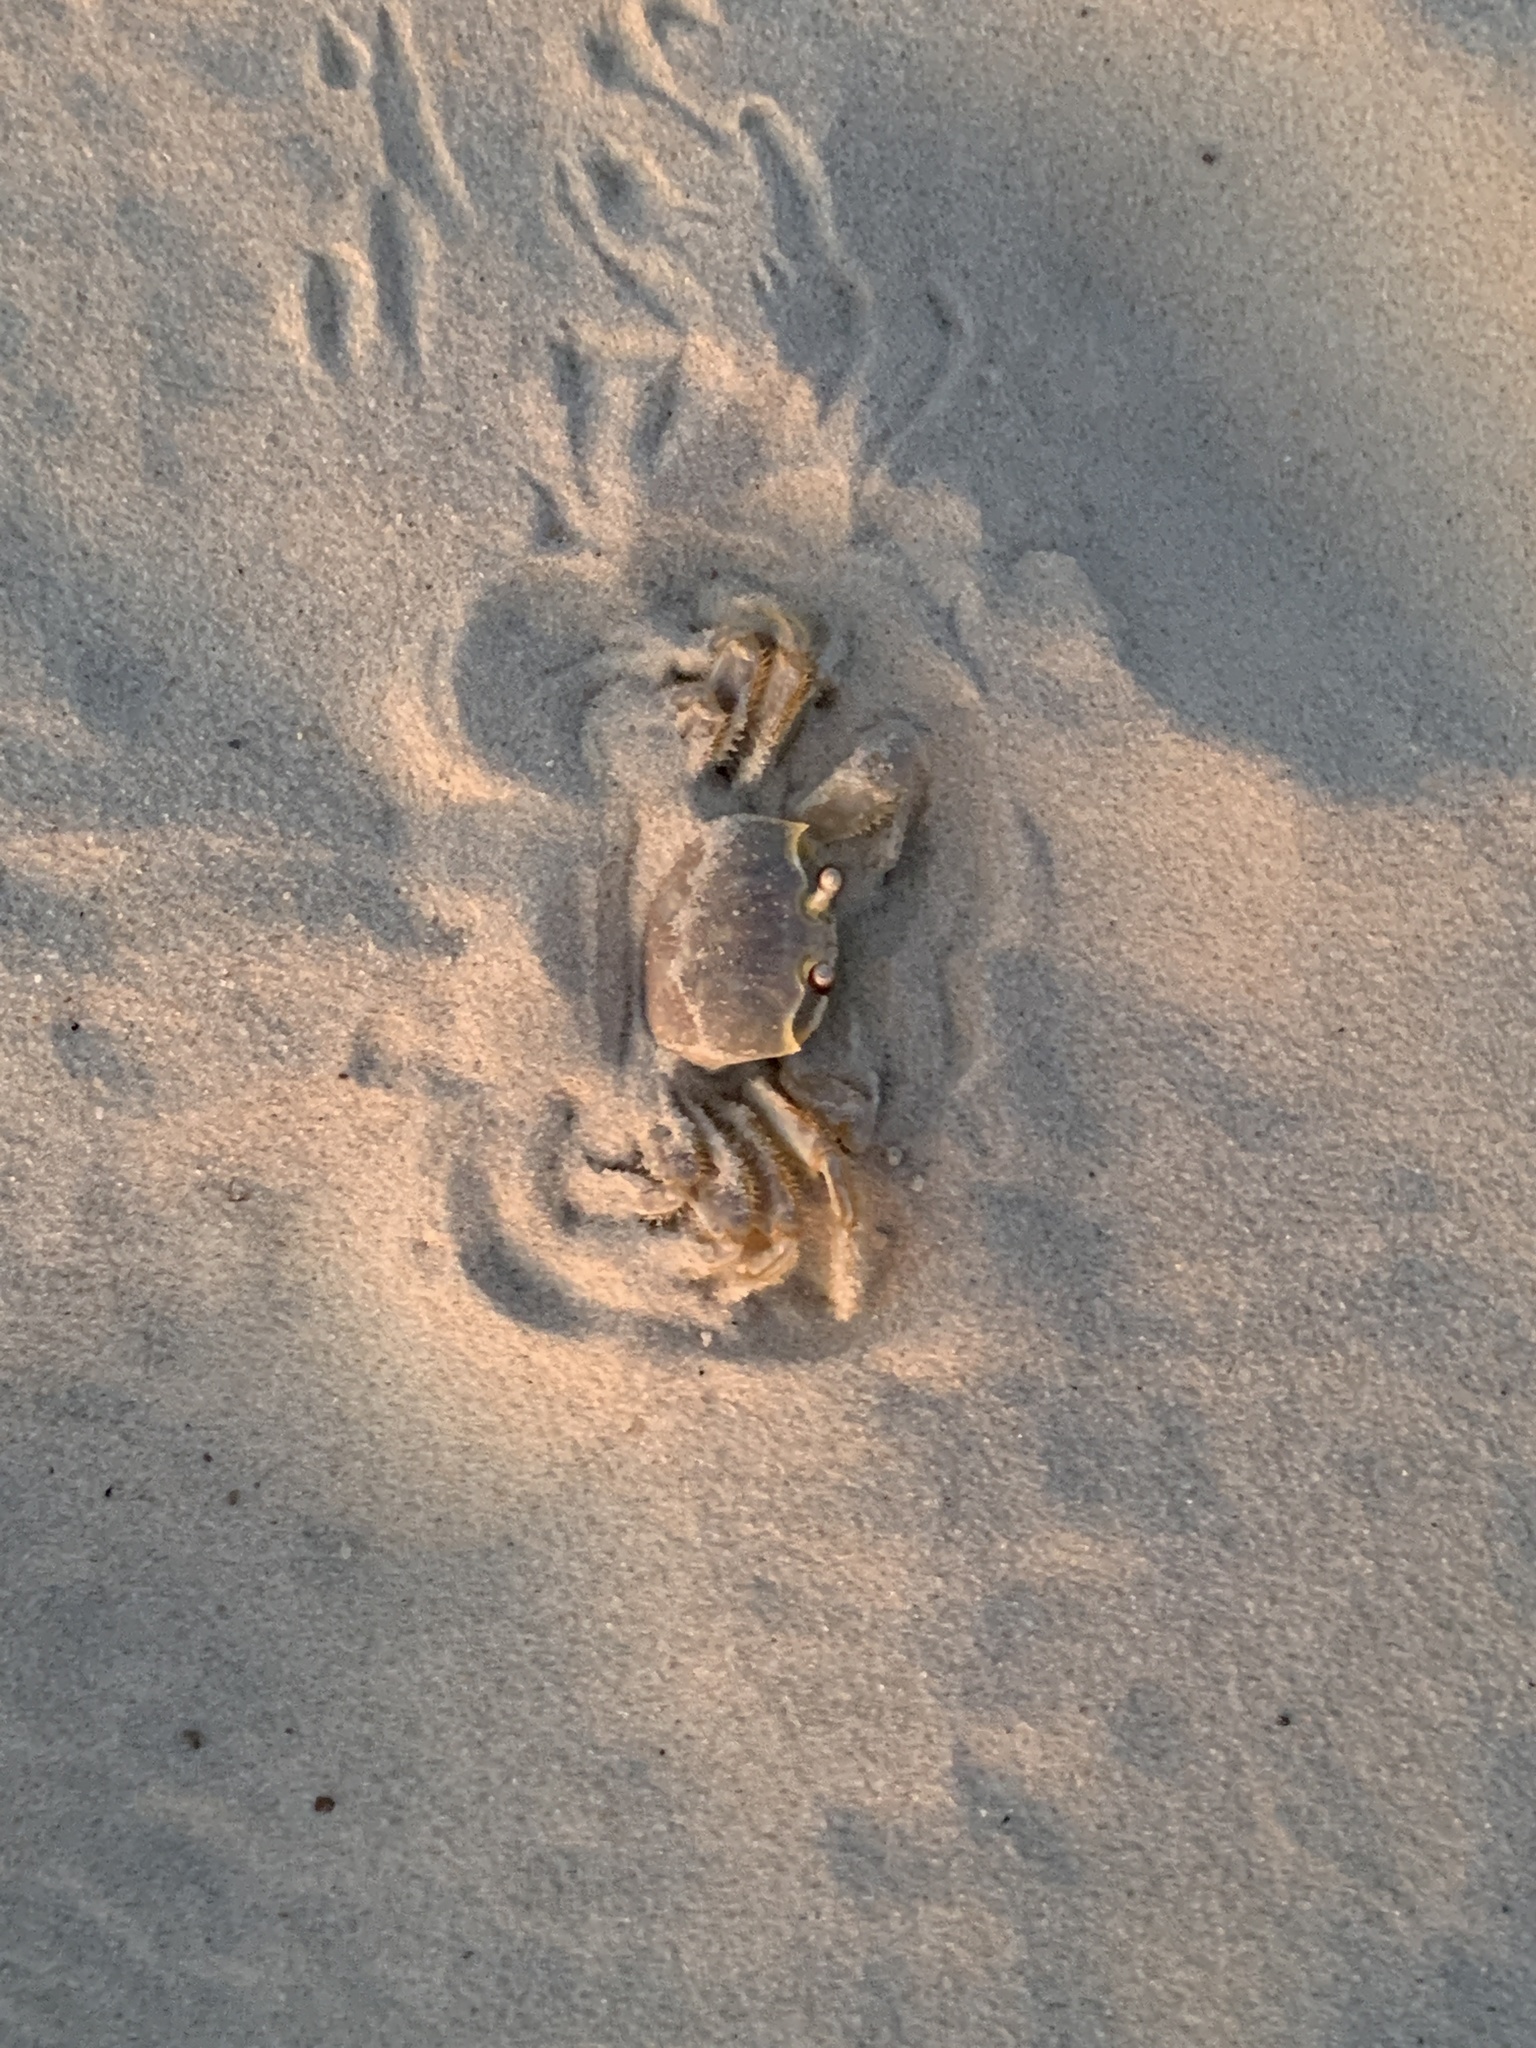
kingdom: Animalia
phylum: Arthropoda
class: Malacostraca
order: Decapoda
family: Ocypodidae
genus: Ocypode
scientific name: Ocypode quadrata
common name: Ghost crab
